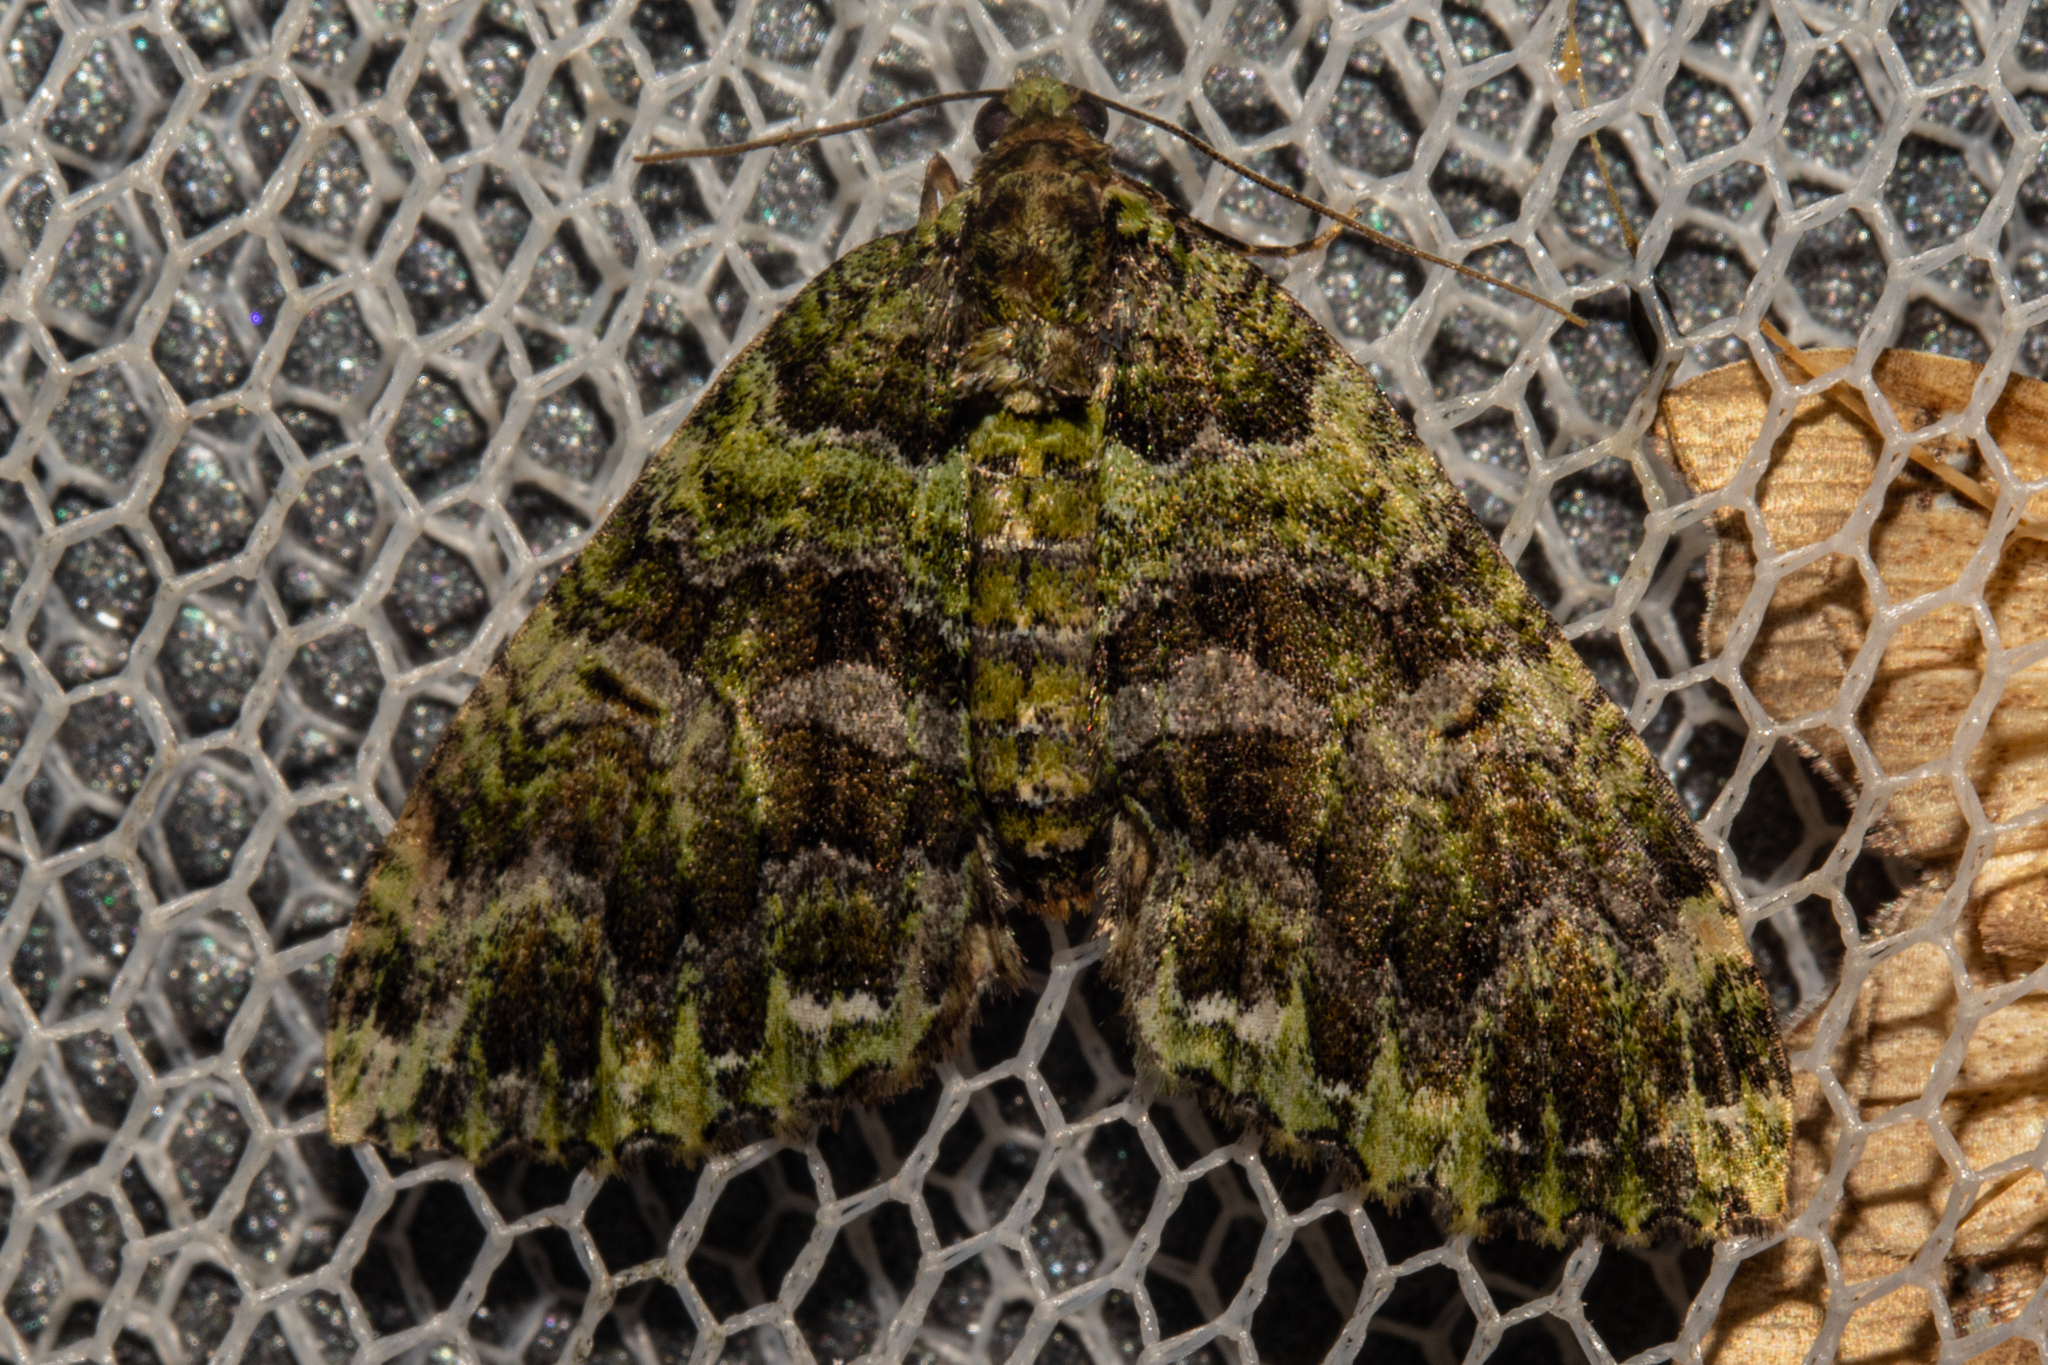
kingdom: Animalia
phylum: Arthropoda
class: Insecta
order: Lepidoptera
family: Geometridae
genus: Austrocidaria
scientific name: Austrocidaria similata
